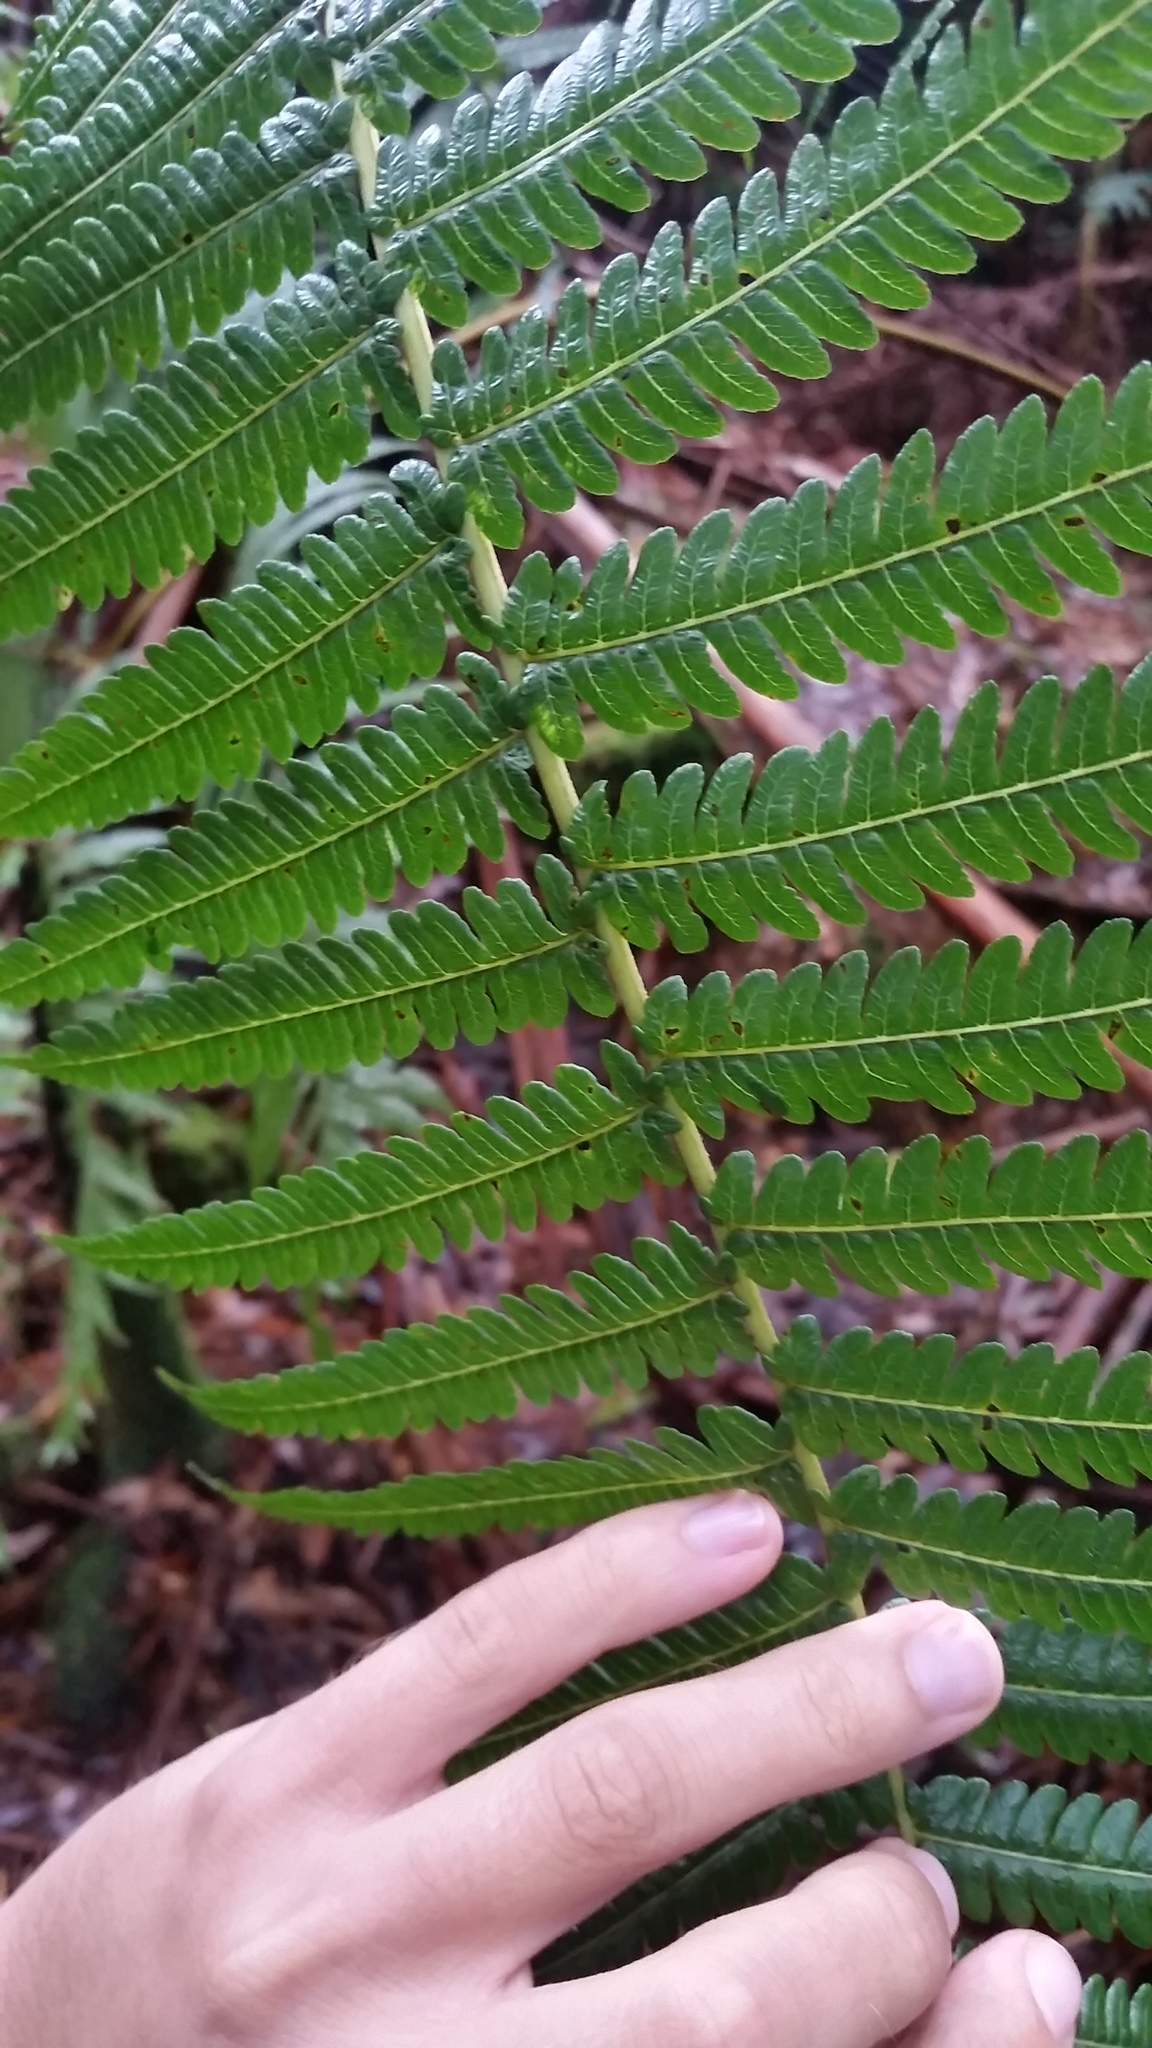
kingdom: Plantae
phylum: Tracheophyta
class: Polypodiopsida
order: Cyatheales
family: Cibotiaceae
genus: Cibotium
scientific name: Cibotium glaucum
